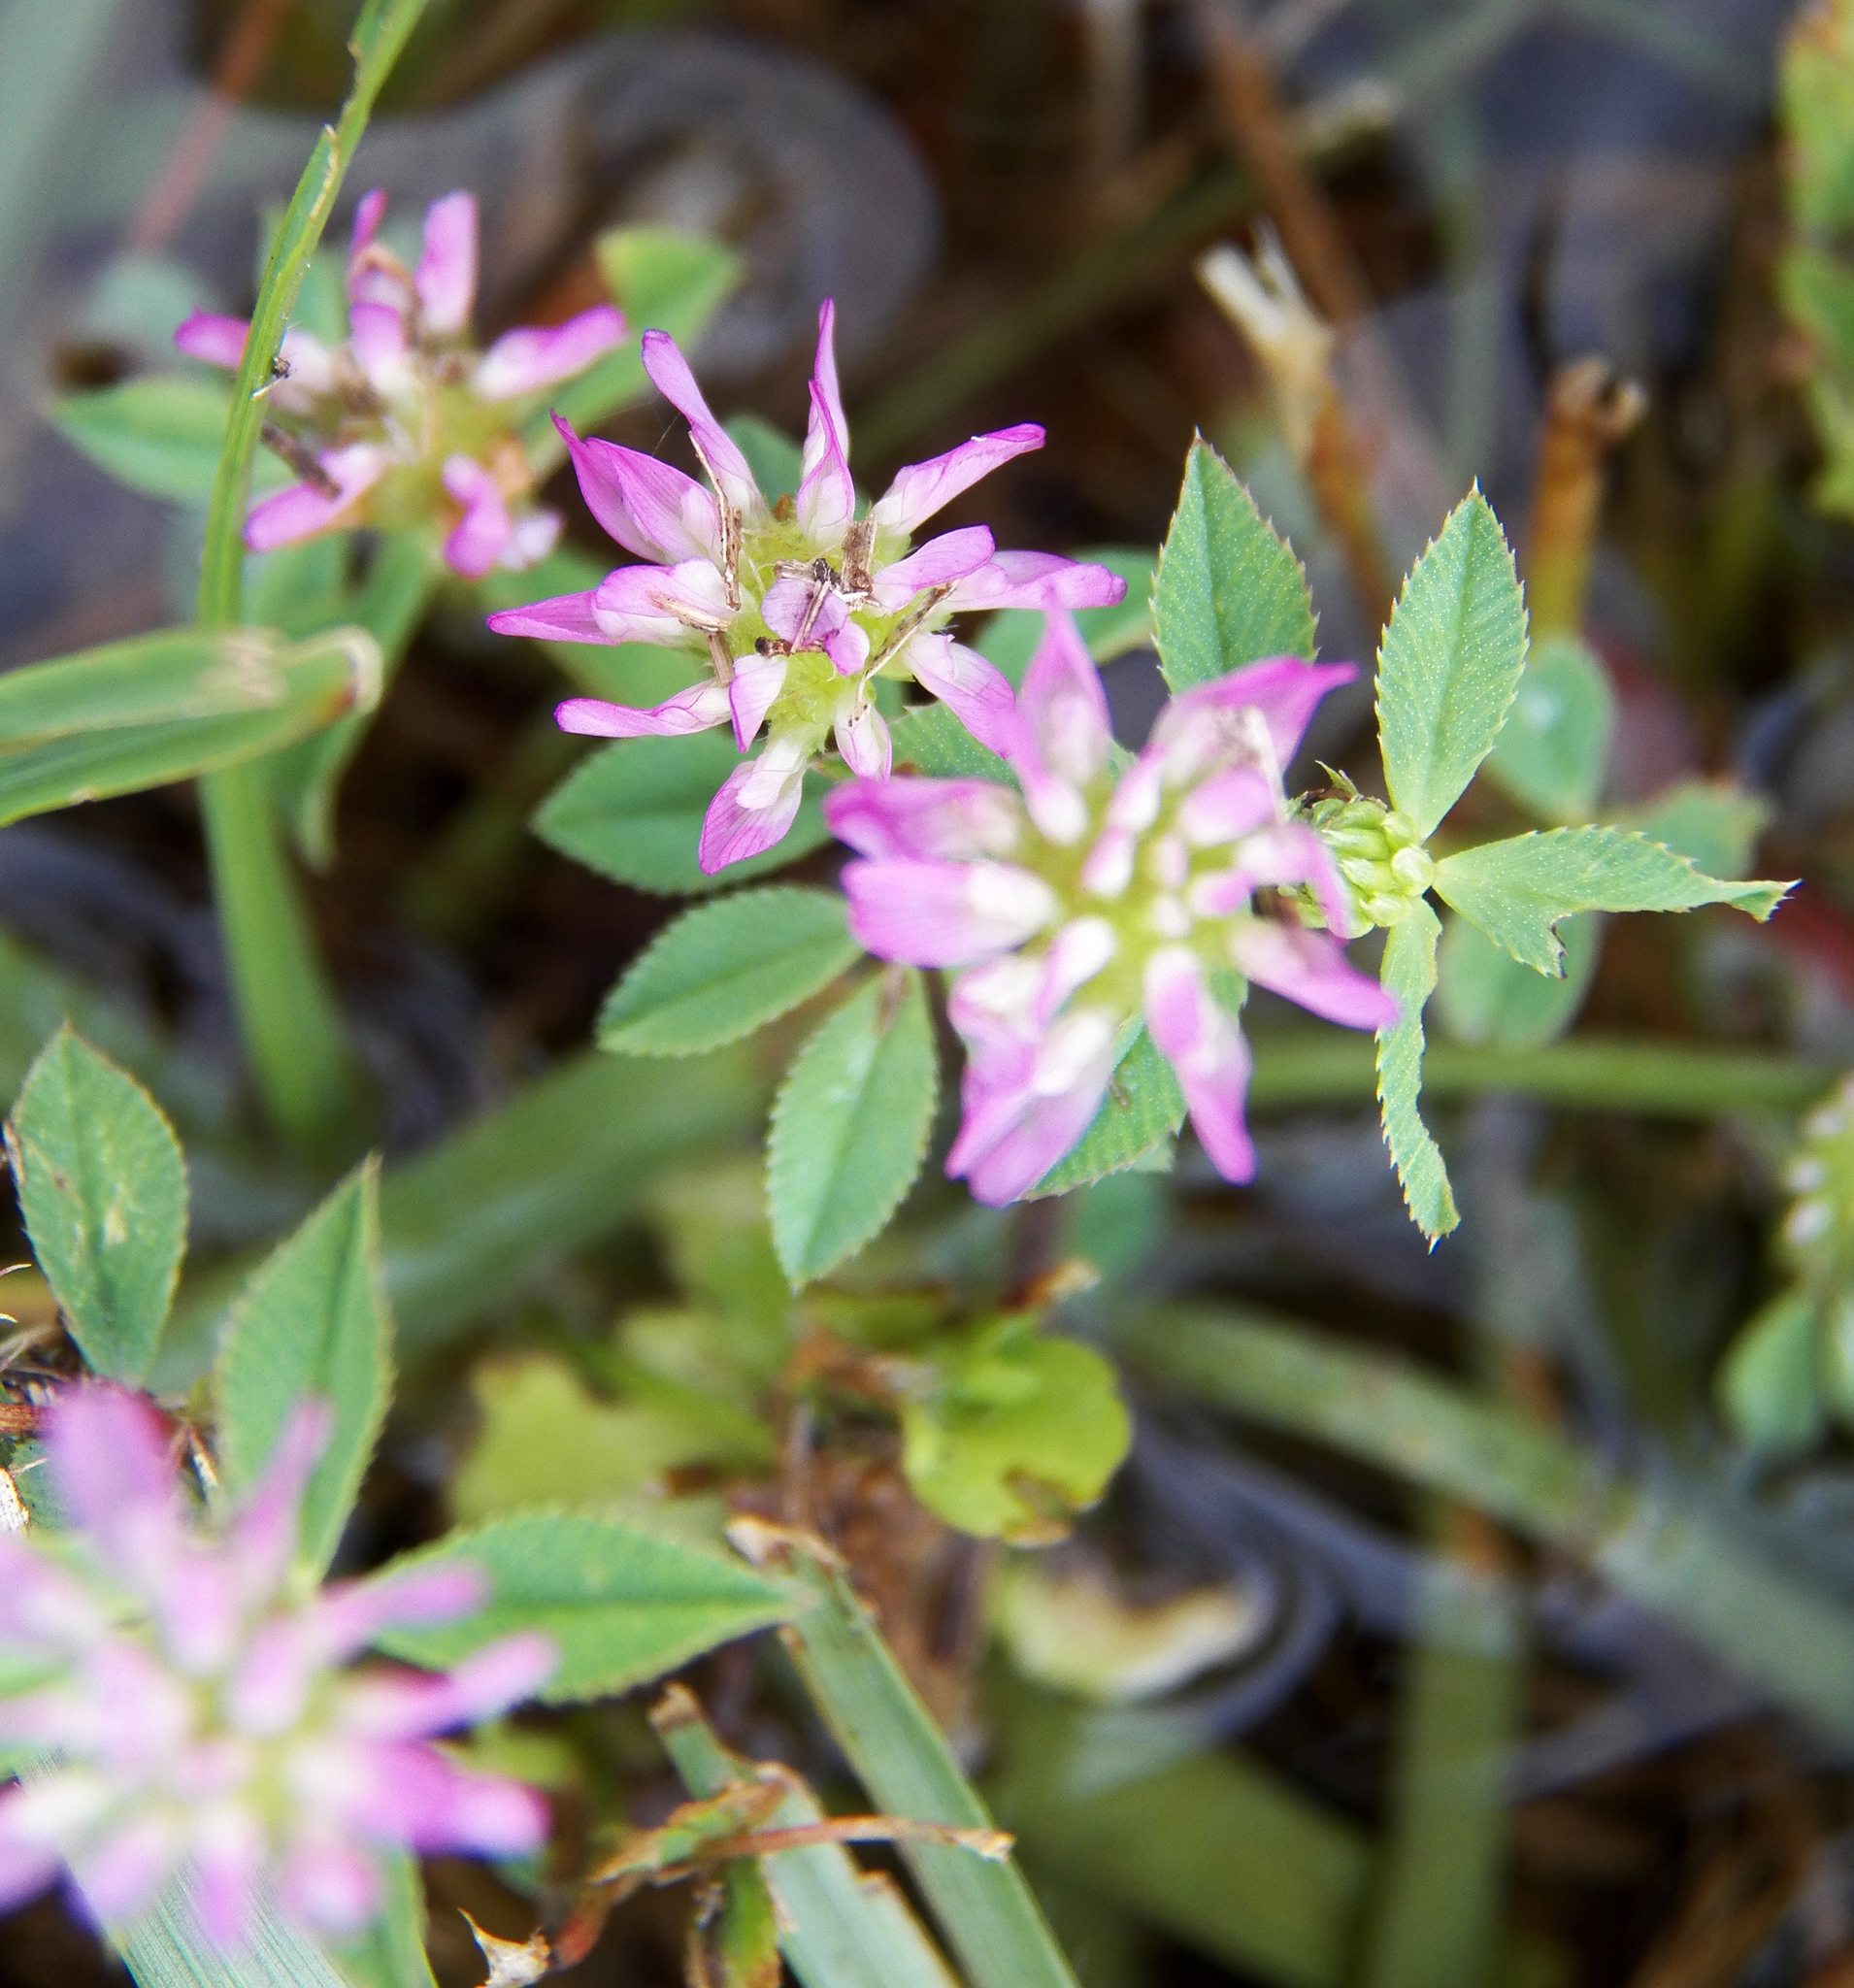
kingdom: Plantae
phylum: Tracheophyta
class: Magnoliopsida
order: Fabales
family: Fabaceae
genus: Trifolium
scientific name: Trifolium resupinatum
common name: Reversed clover
